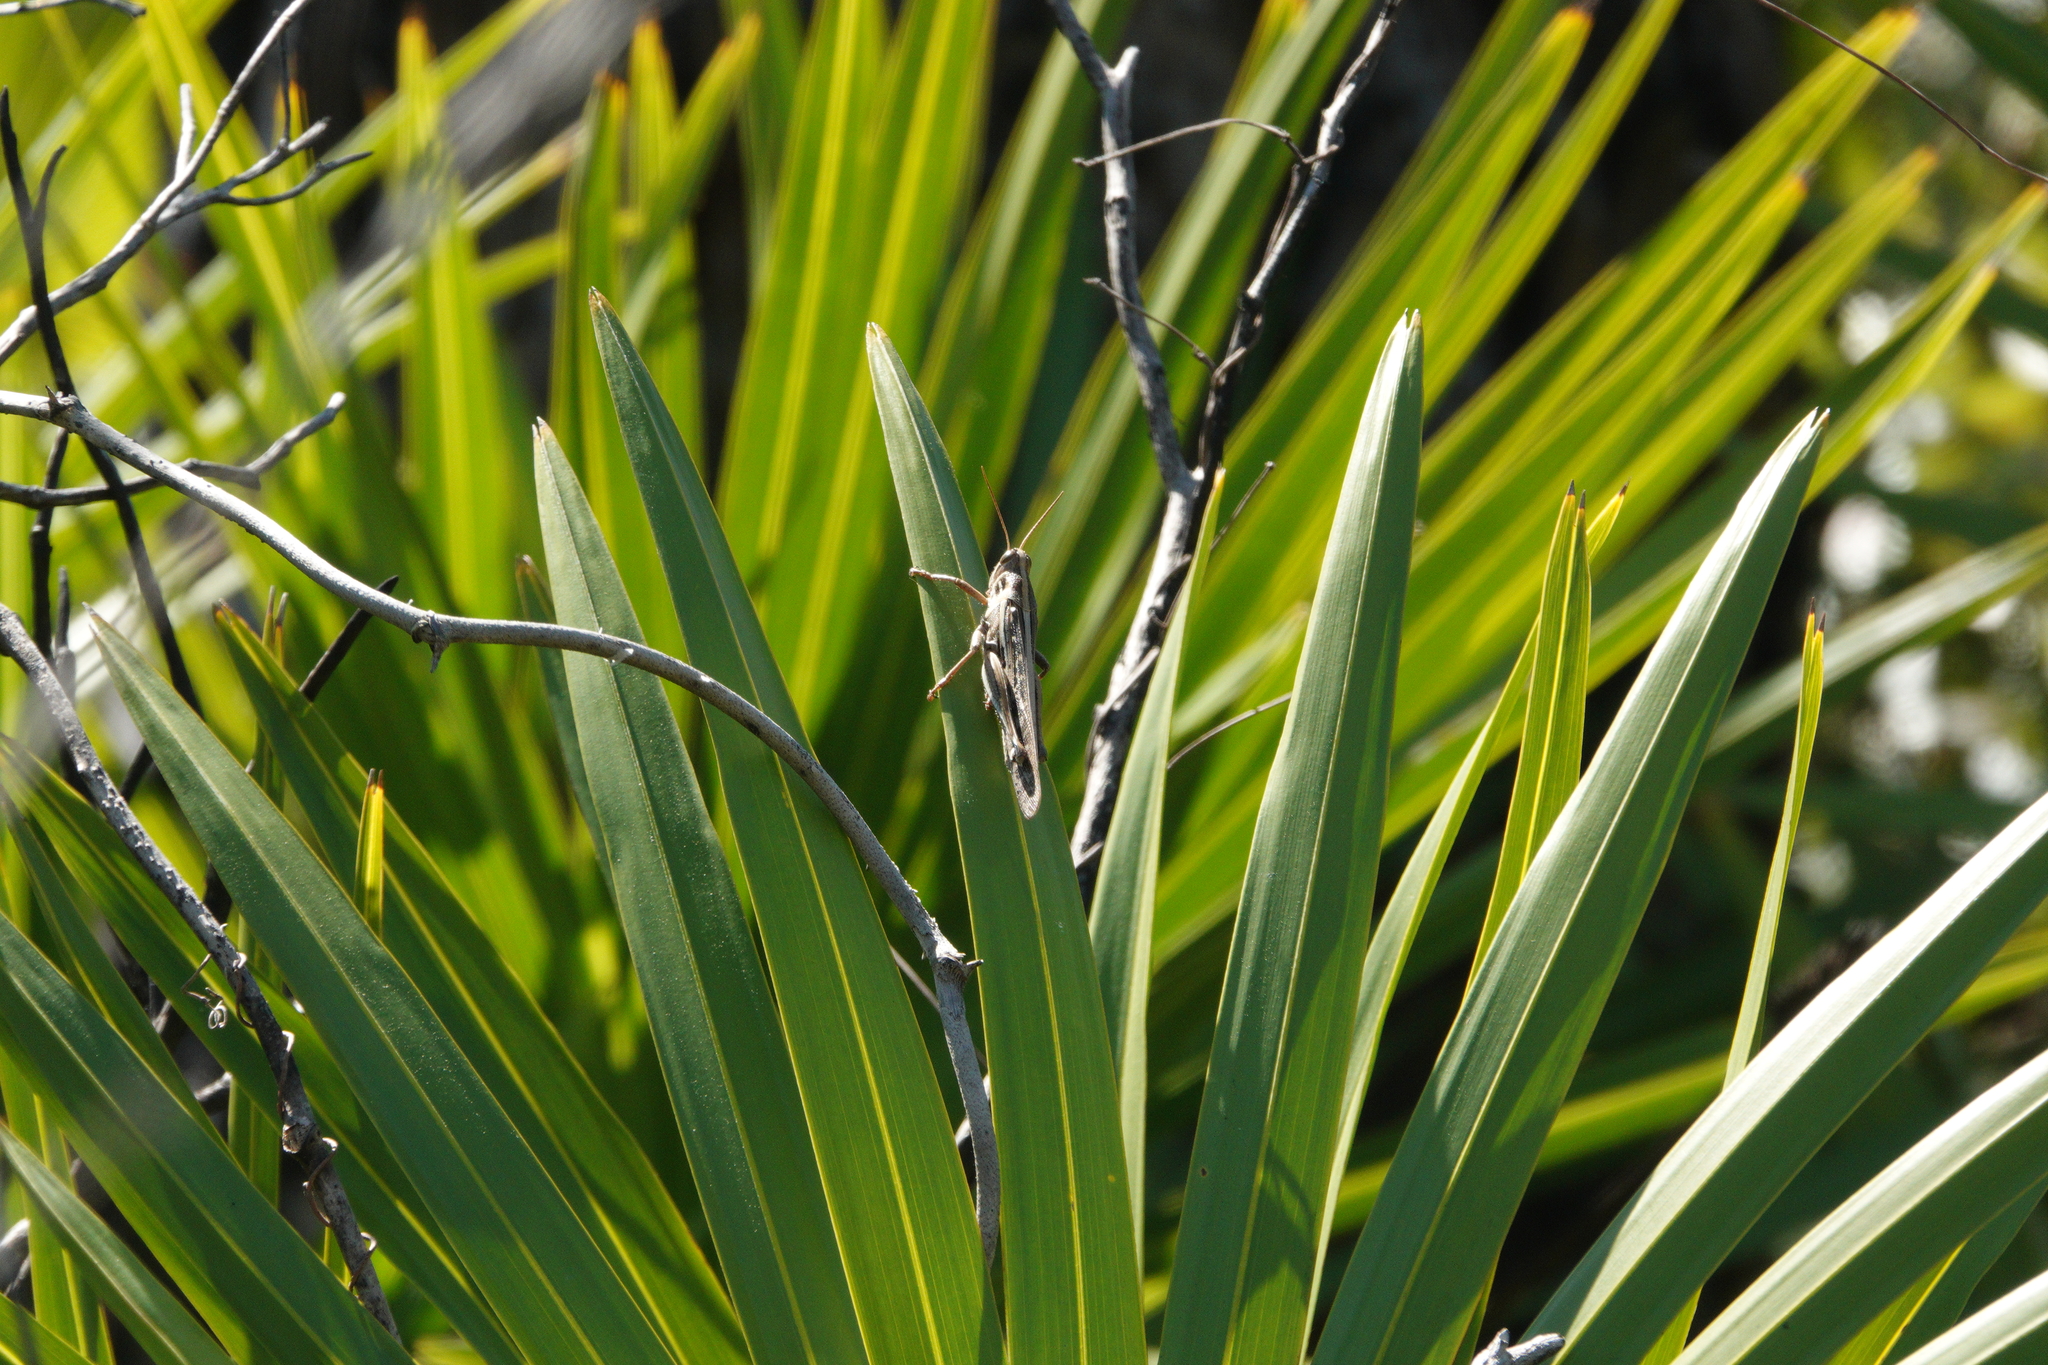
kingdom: Animalia
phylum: Arthropoda
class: Insecta
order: Orthoptera
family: Acrididae
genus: Schistocerca
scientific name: Schistocerca serialis
